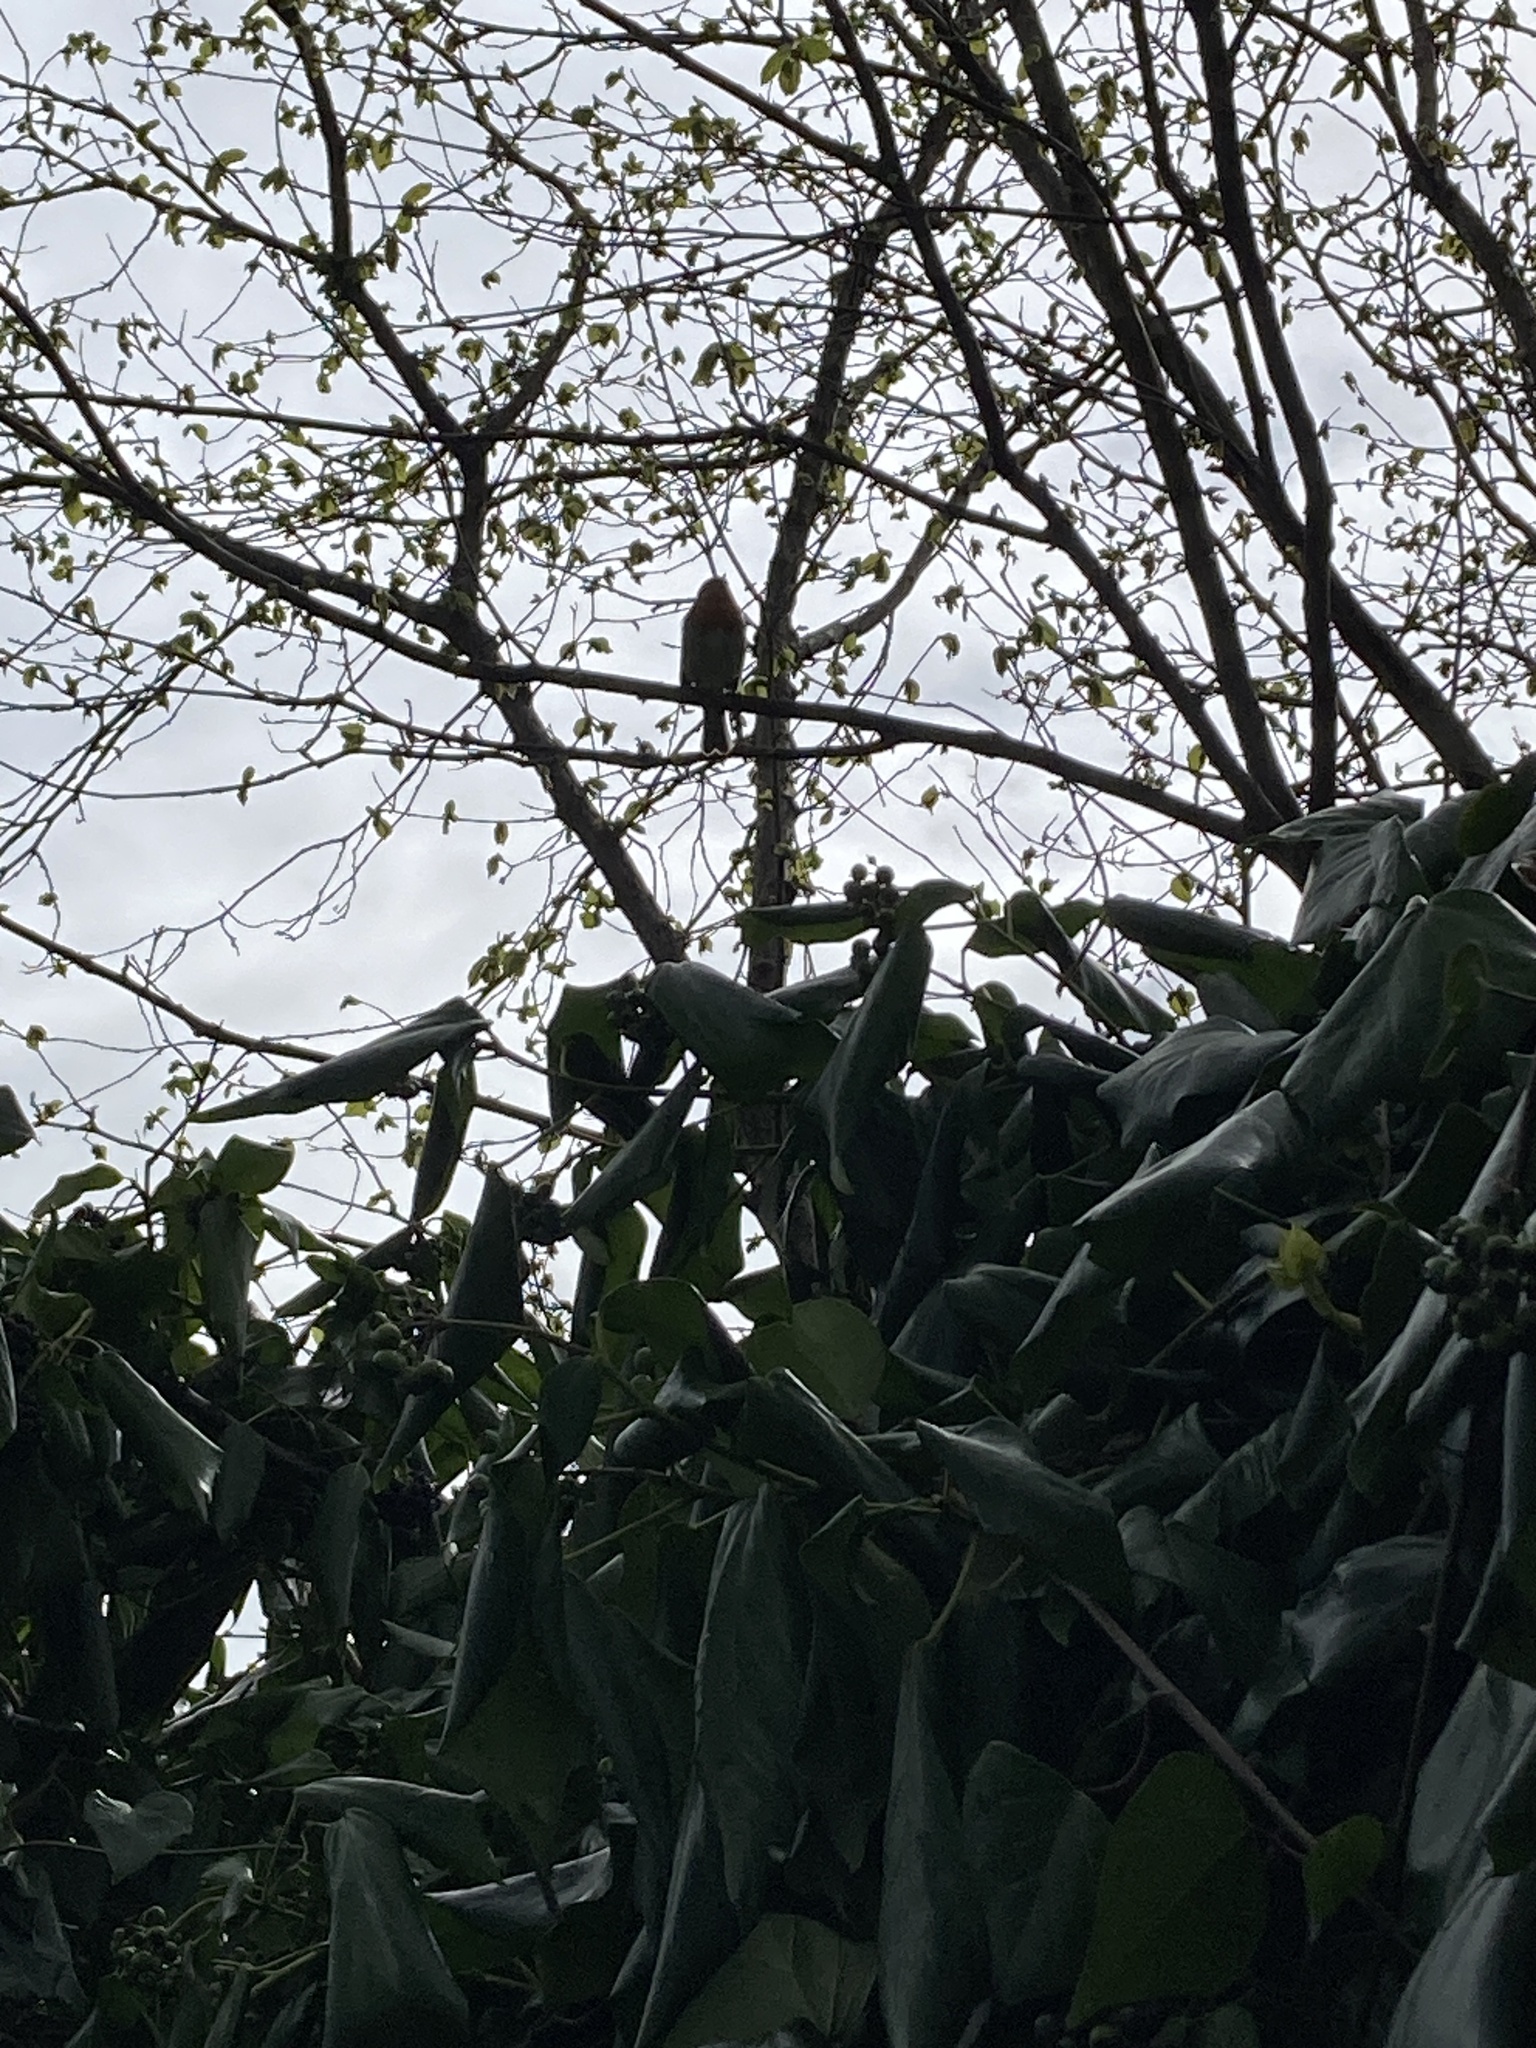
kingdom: Animalia
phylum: Chordata
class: Aves
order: Passeriformes
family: Muscicapidae
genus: Erithacus
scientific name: Erithacus rubecula
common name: European robin
